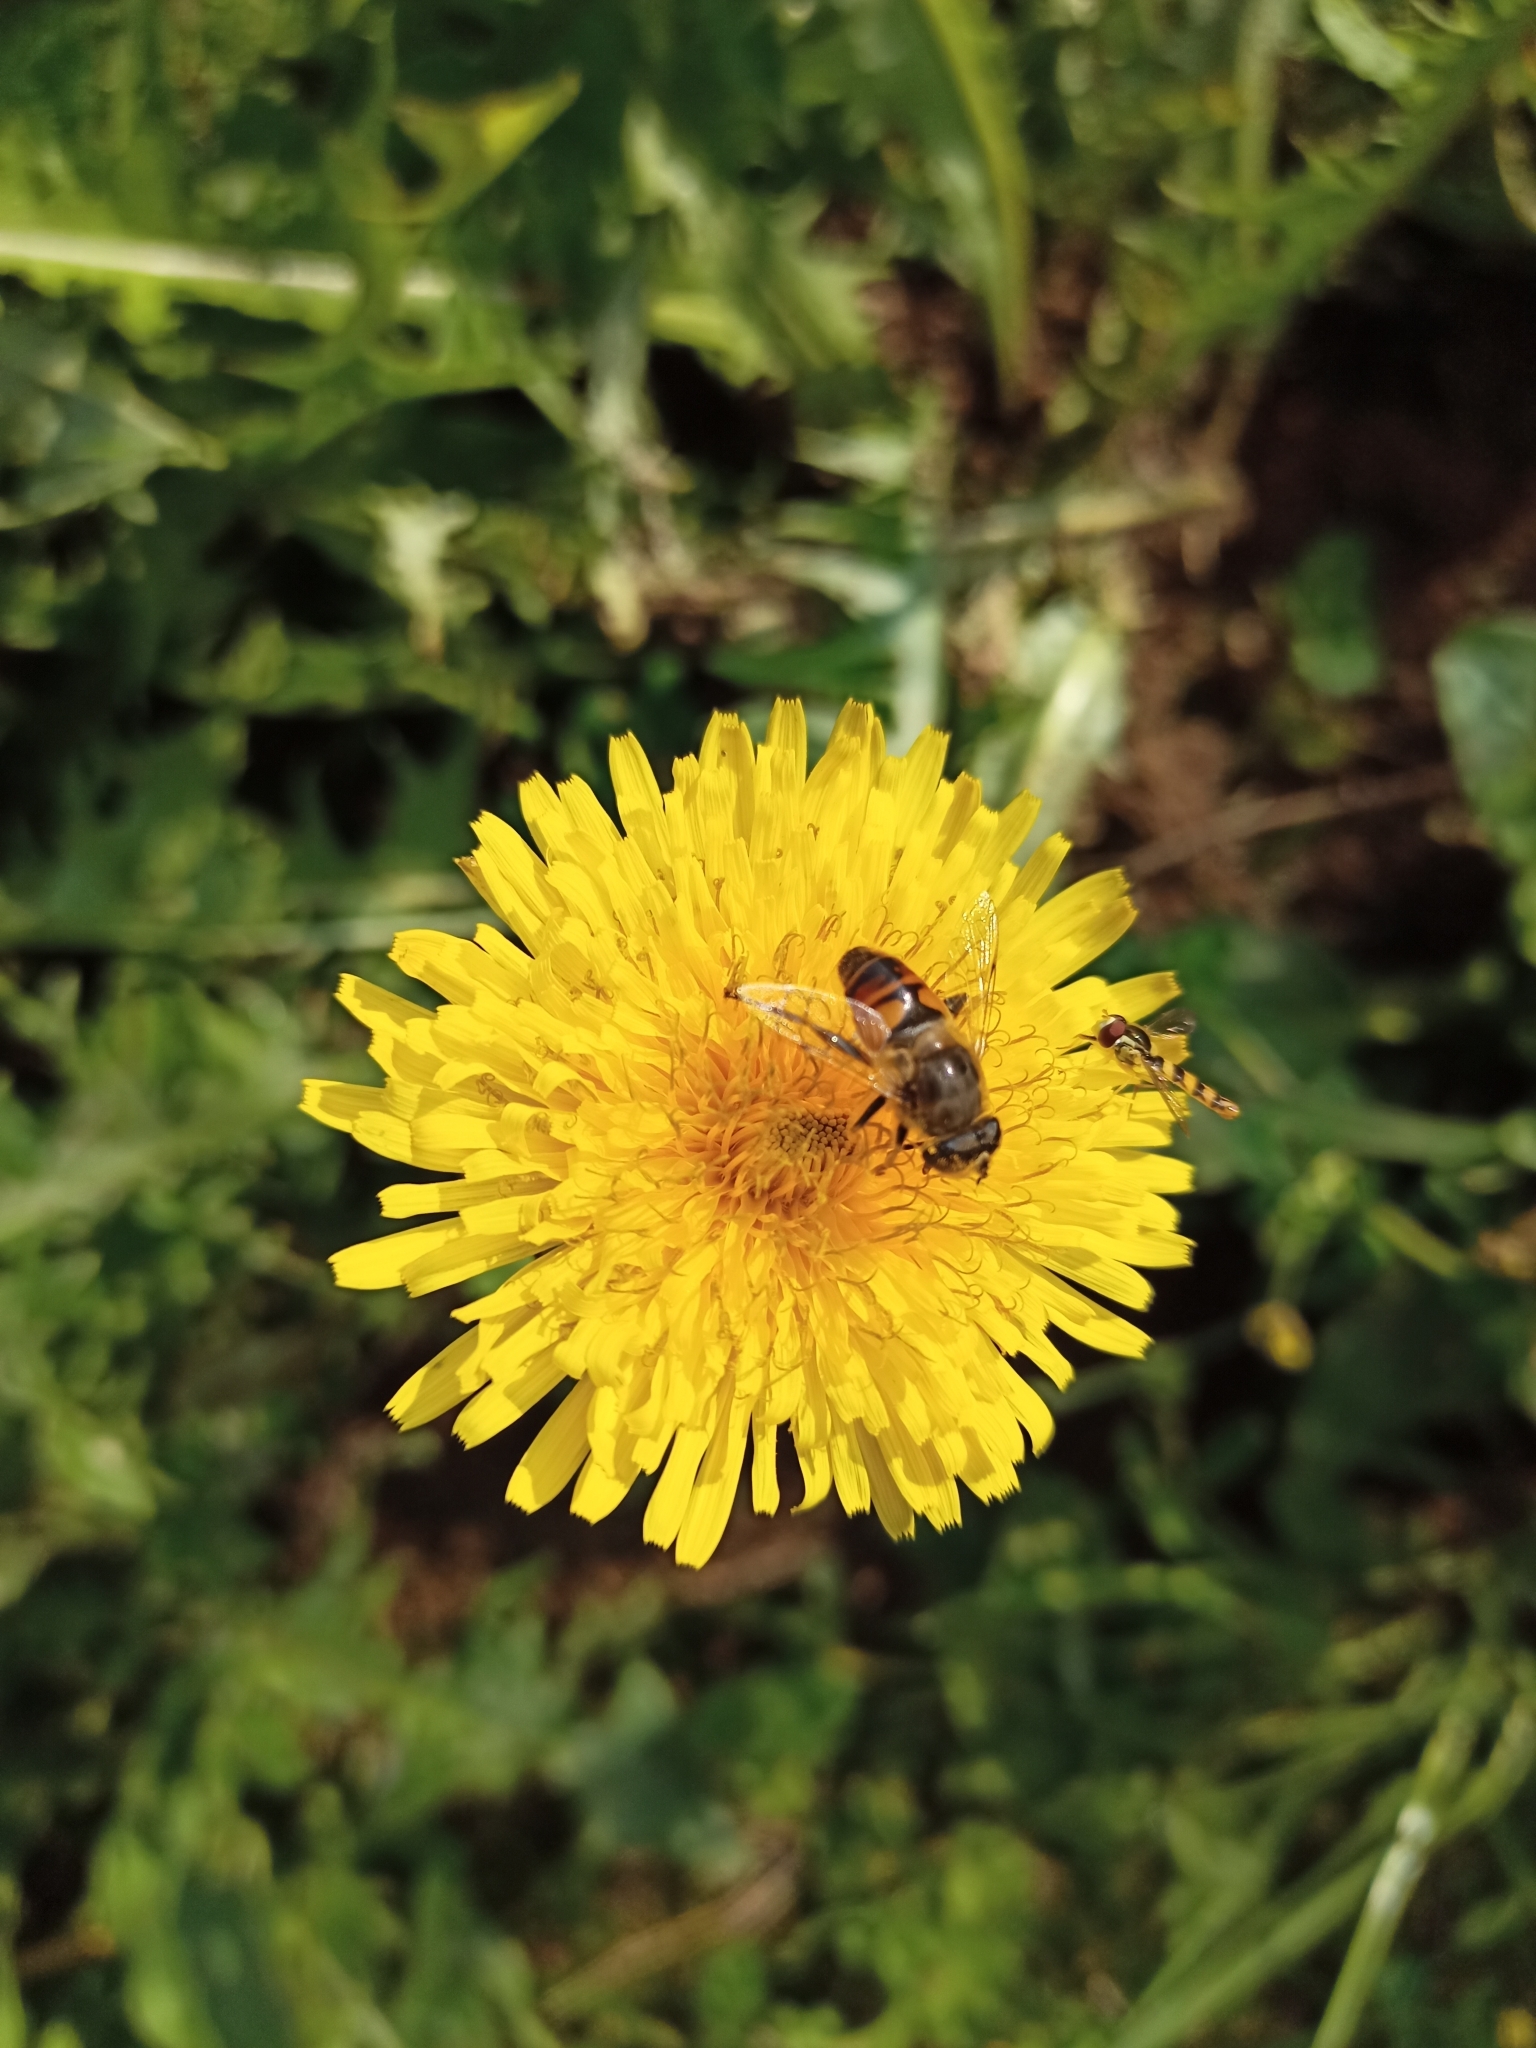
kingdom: Animalia
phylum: Arthropoda
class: Insecta
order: Diptera
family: Syrphidae
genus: Eristalis
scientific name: Eristalis tenax
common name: Drone fly
